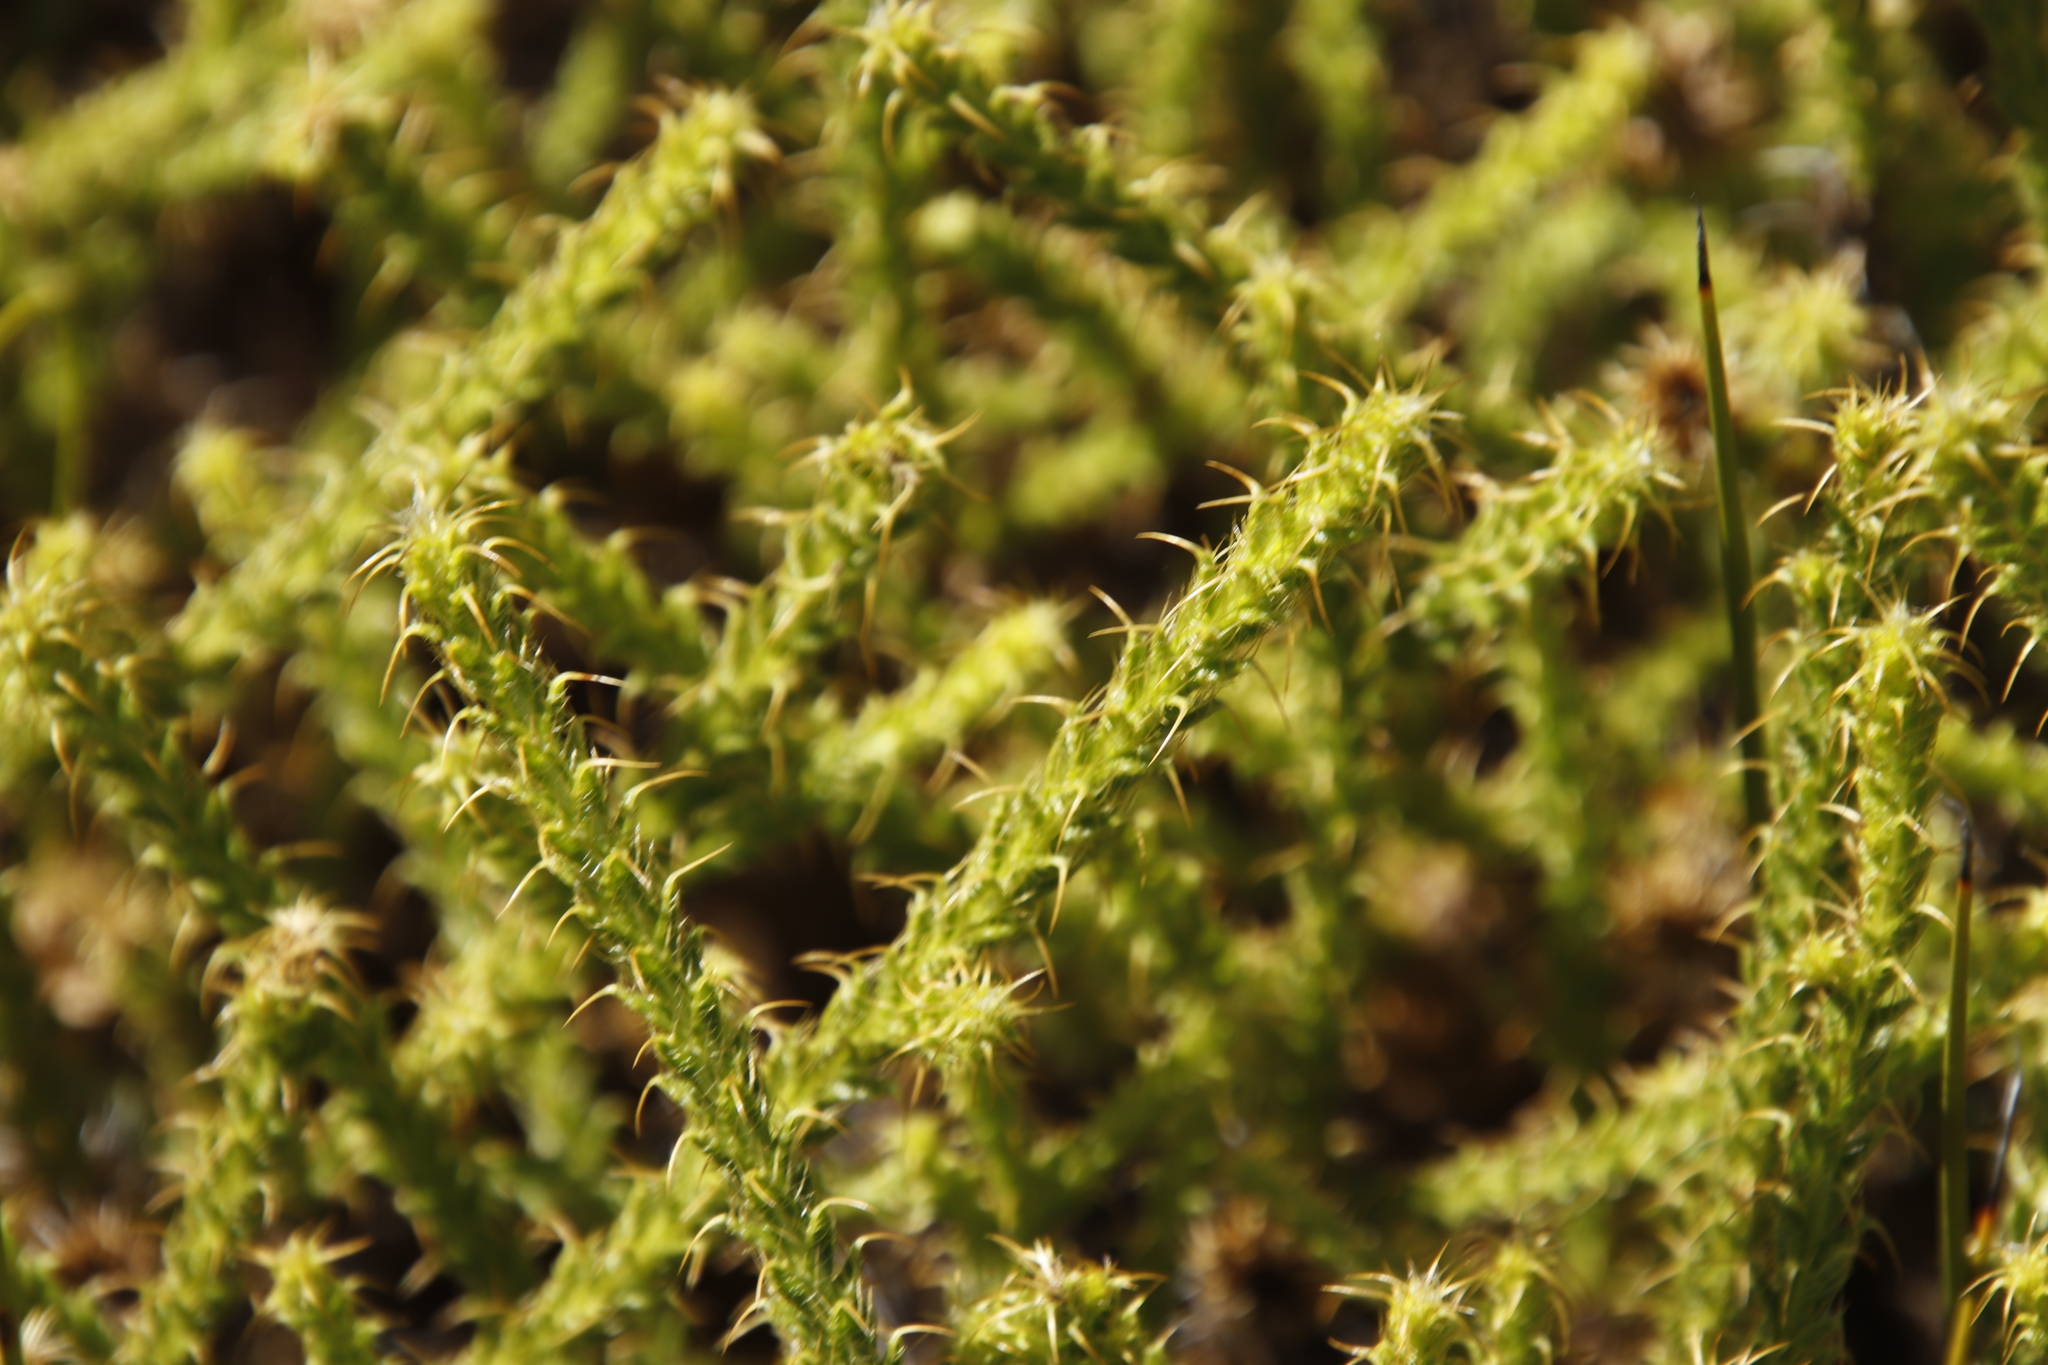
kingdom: Plantae
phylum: Tracheophyta
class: Magnoliopsida
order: Asterales
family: Asteraceae
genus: Cullumia
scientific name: Cullumia reticulata
